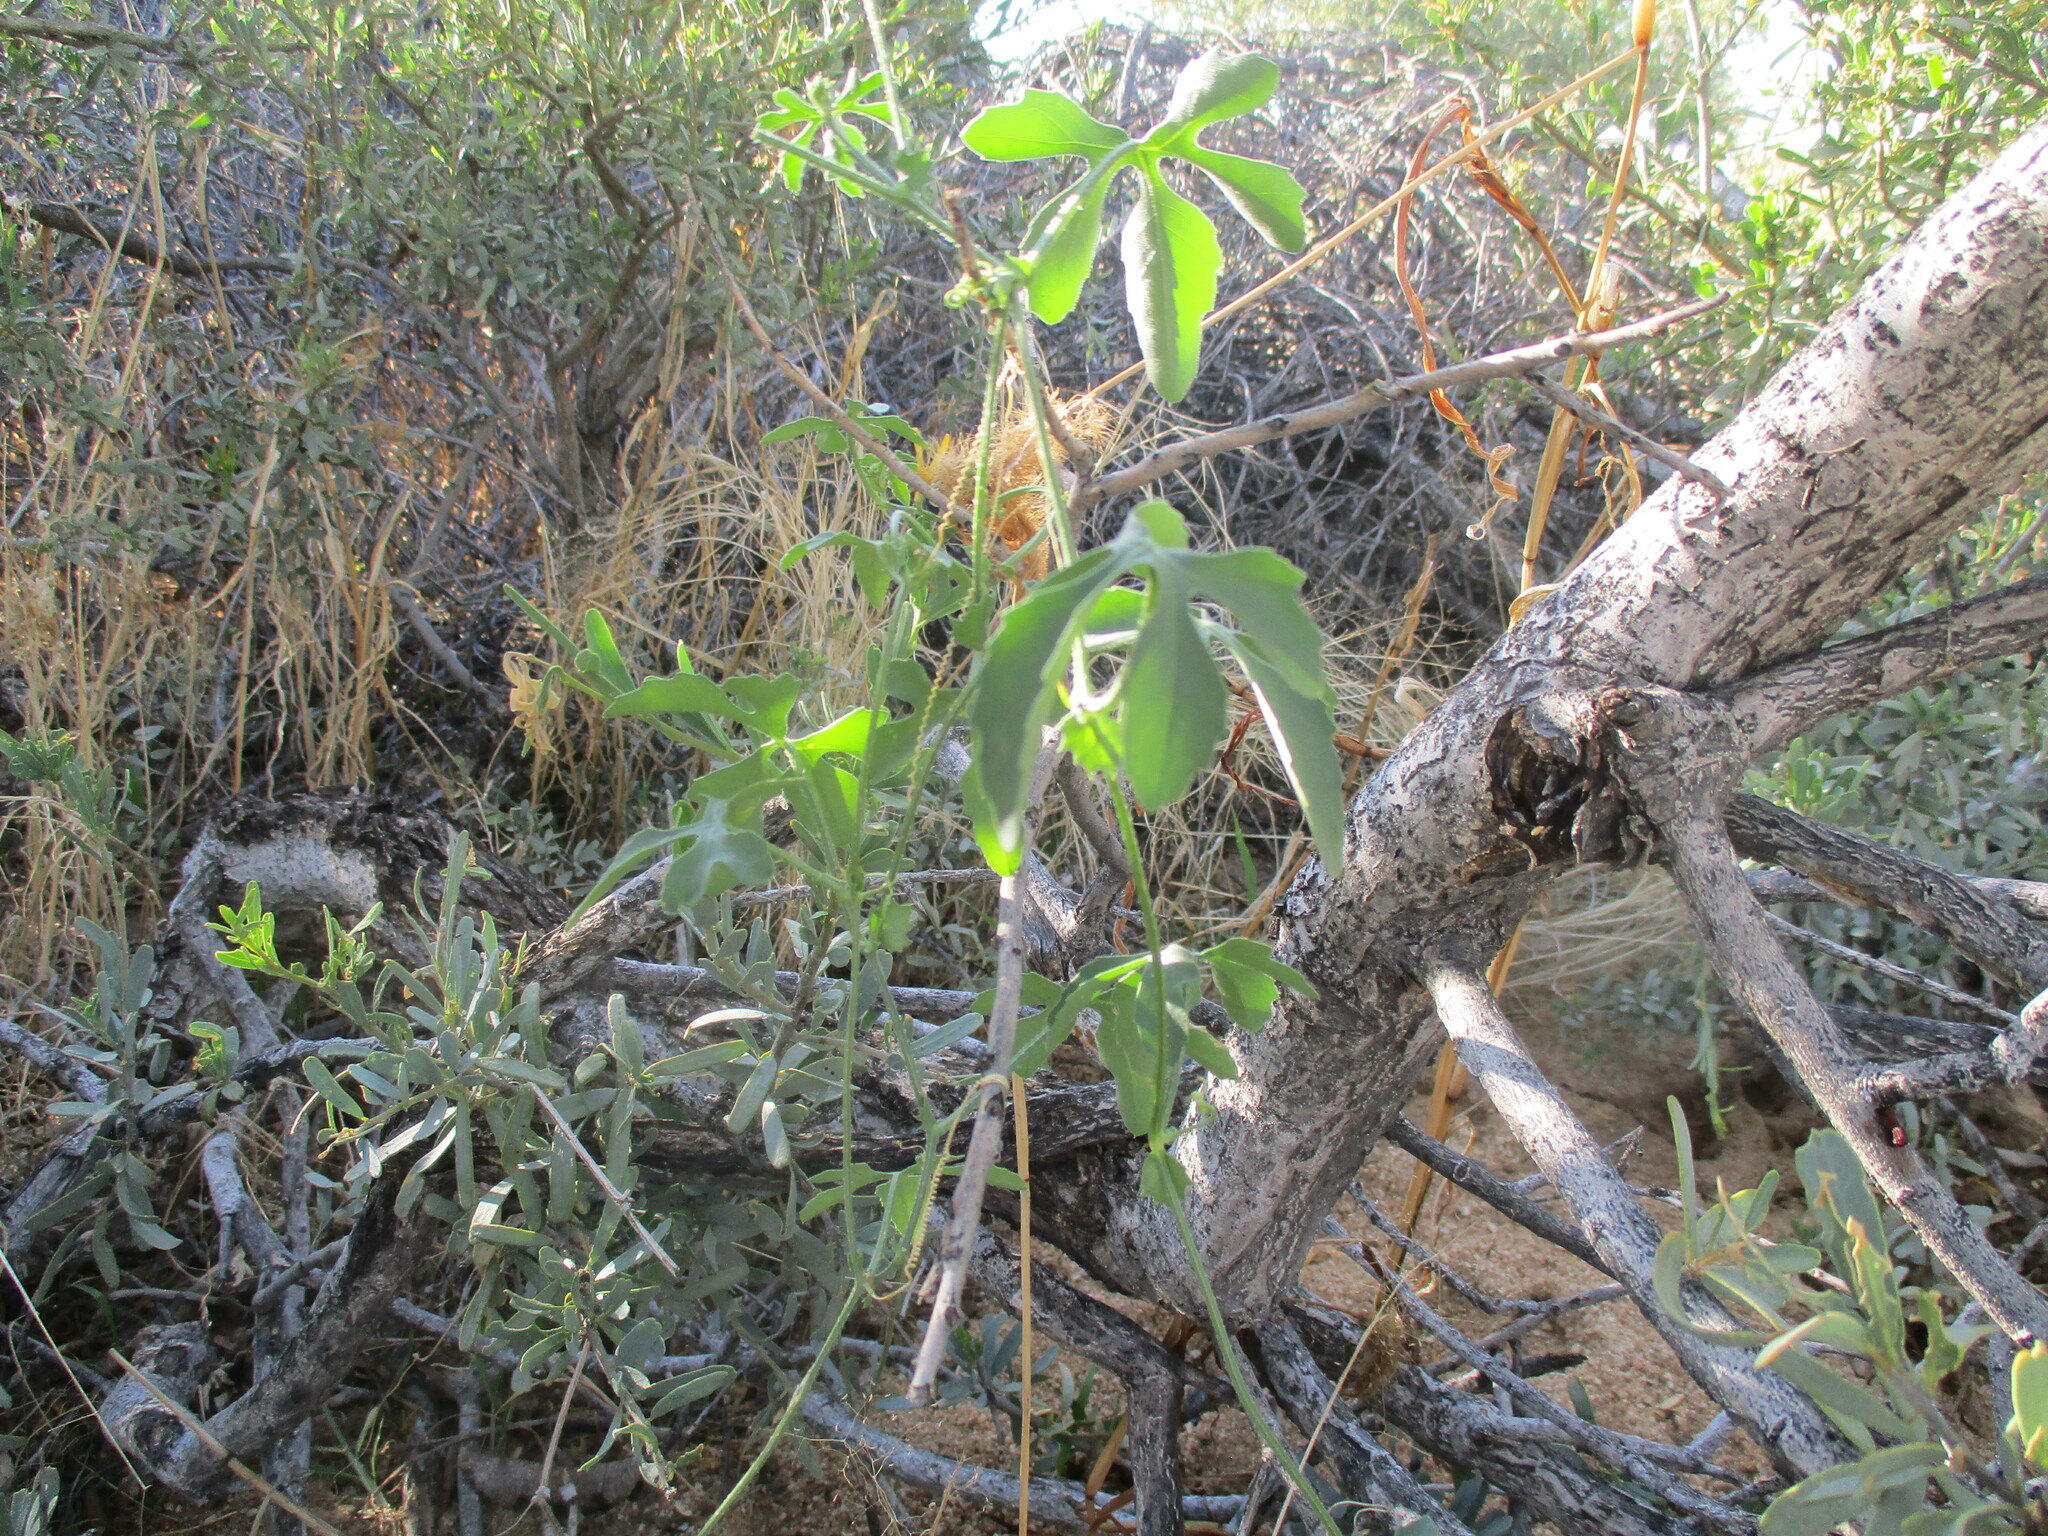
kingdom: Plantae
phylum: Tracheophyta
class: Magnoliopsida
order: Cucurbitales
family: Cucurbitaceae
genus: Dactyliandra
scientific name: Dactyliandra welwitschii
